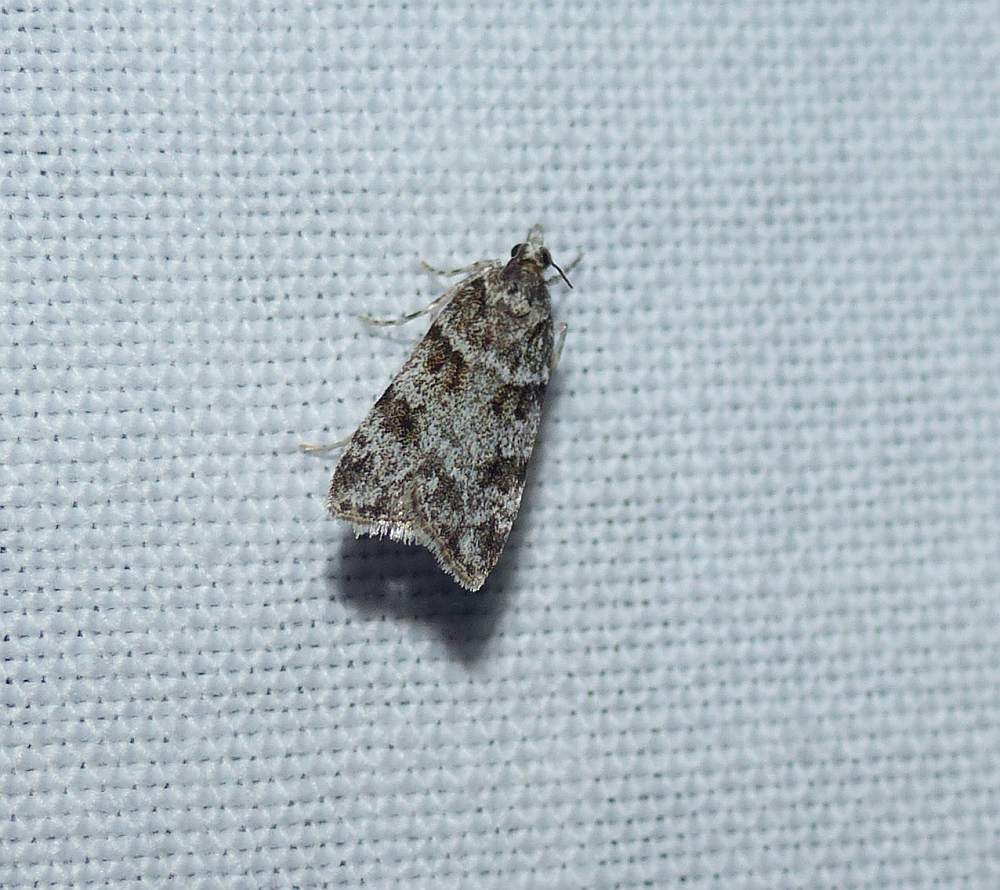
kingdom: Animalia
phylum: Arthropoda
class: Insecta
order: Lepidoptera
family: Crambidae
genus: Scoparia
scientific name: Scoparia biplagialis
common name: Double-striped scoparia moth
